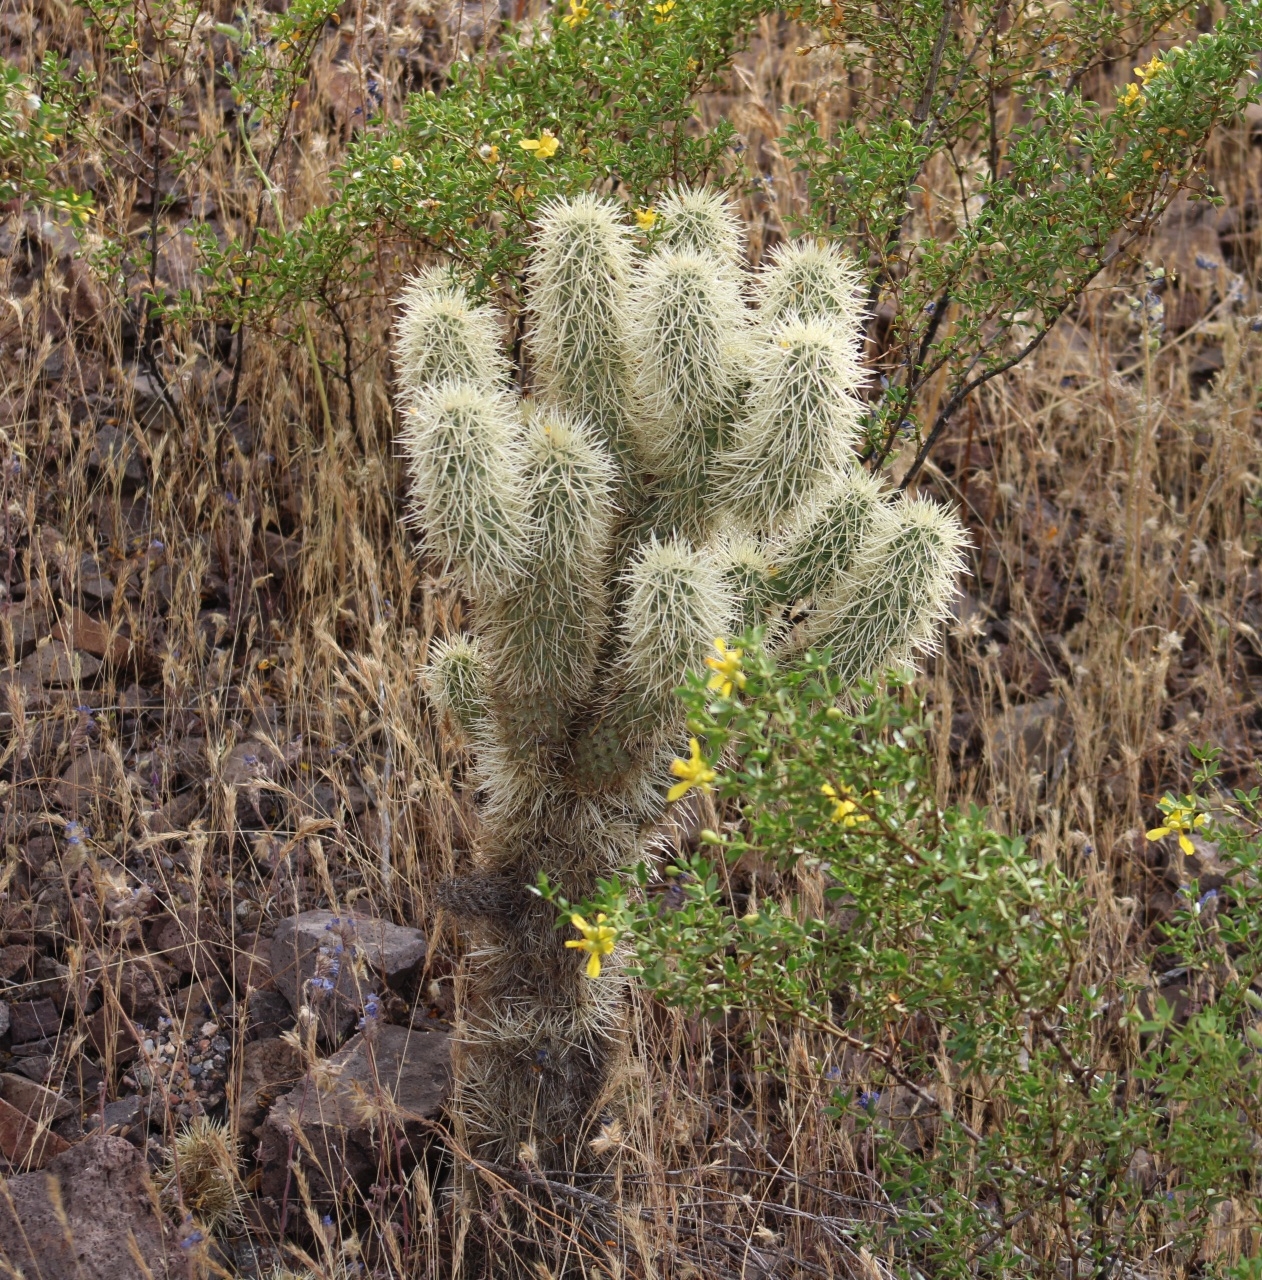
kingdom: Plantae
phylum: Tracheophyta
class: Magnoliopsida
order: Caryophyllales
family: Cactaceae
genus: Cylindropuntia
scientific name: Cylindropuntia fosbergii
